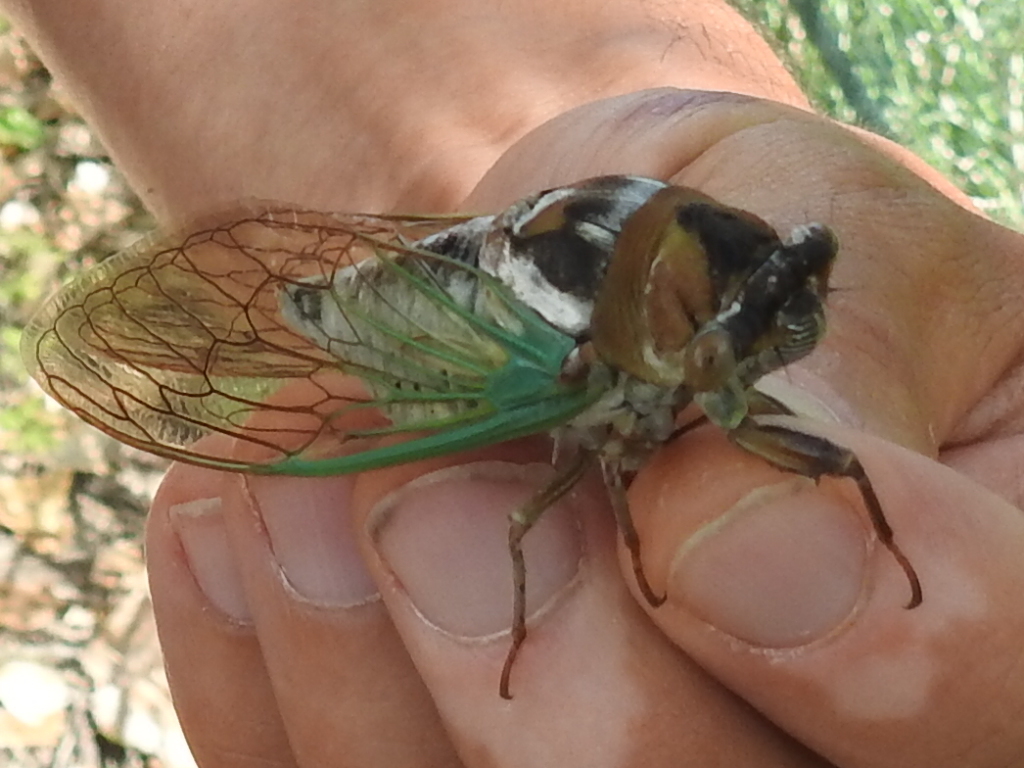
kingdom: Animalia
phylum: Arthropoda
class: Insecta
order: Hemiptera
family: Cicadidae
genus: Megatibicen
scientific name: Megatibicen cultriformis
